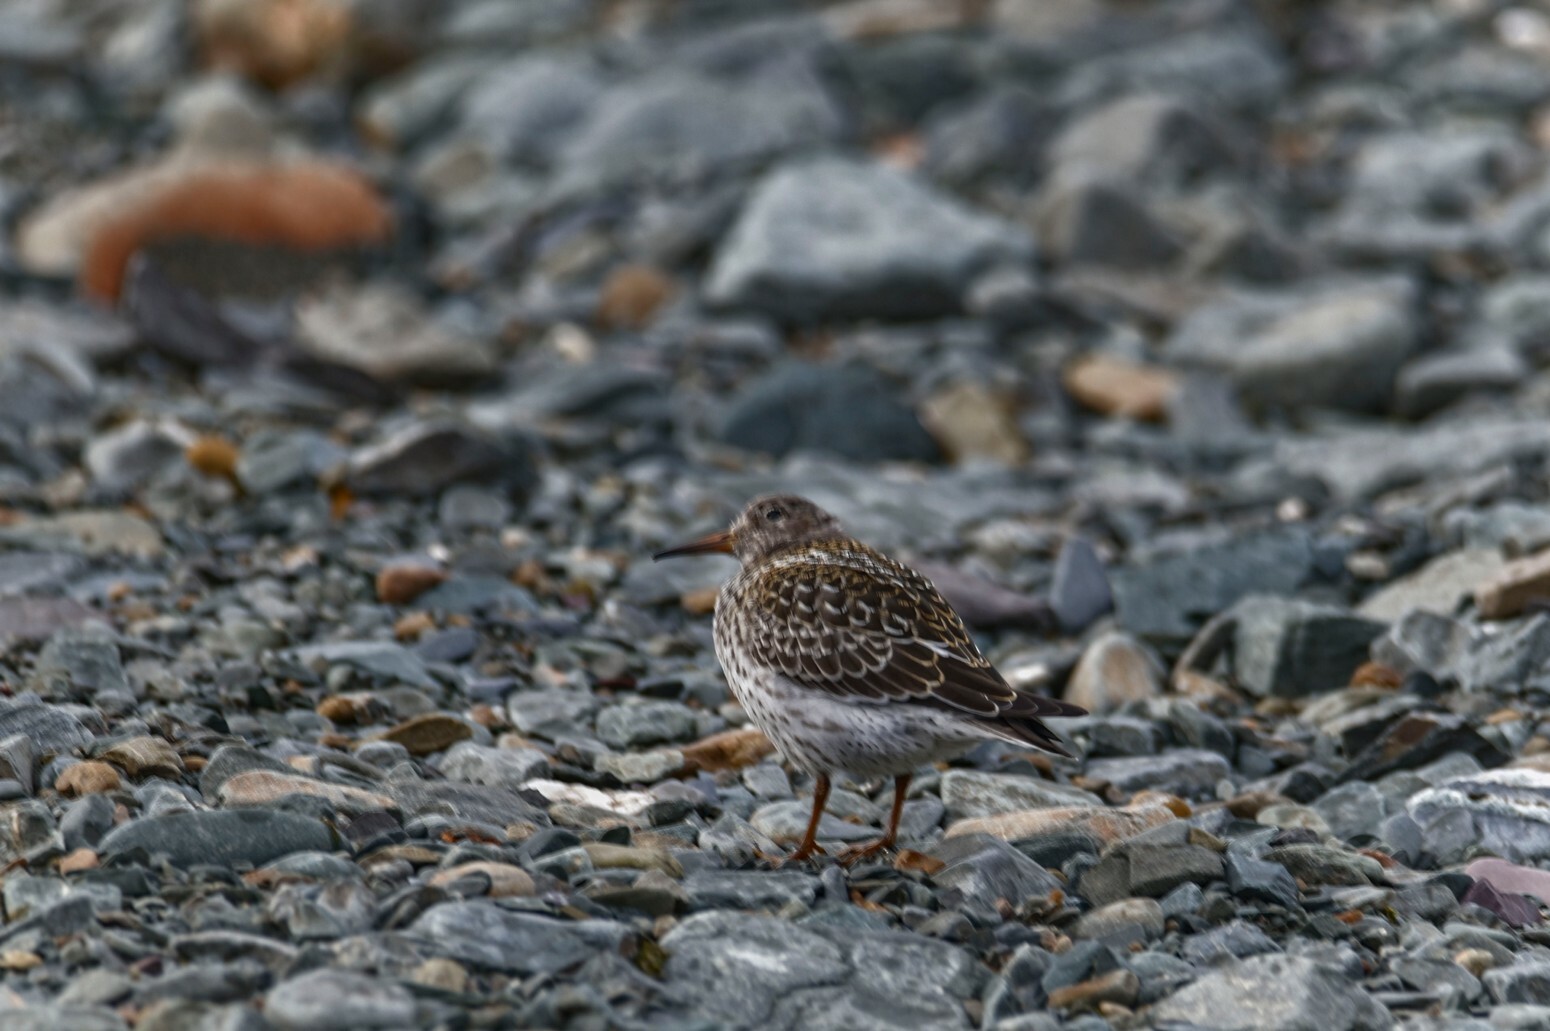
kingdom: Animalia
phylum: Chordata
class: Aves
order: Charadriiformes
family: Scolopacidae
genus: Calidris
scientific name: Calidris maritima
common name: Purple sandpiper
